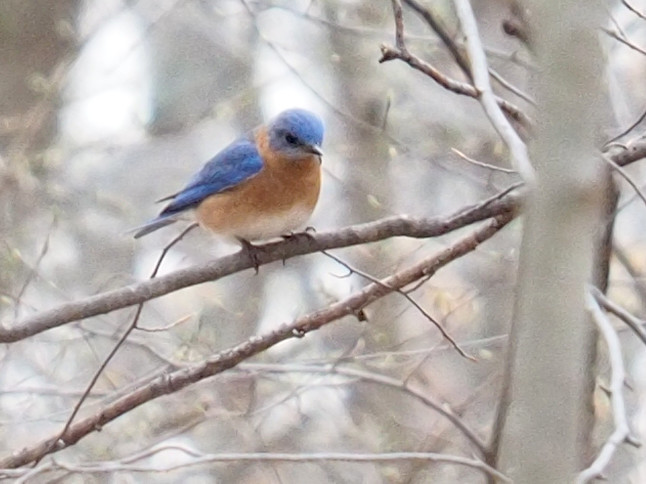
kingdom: Animalia
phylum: Chordata
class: Aves
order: Passeriformes
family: Turdidae
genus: Sialia
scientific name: Sialia sialis
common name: Eastern bluebird
